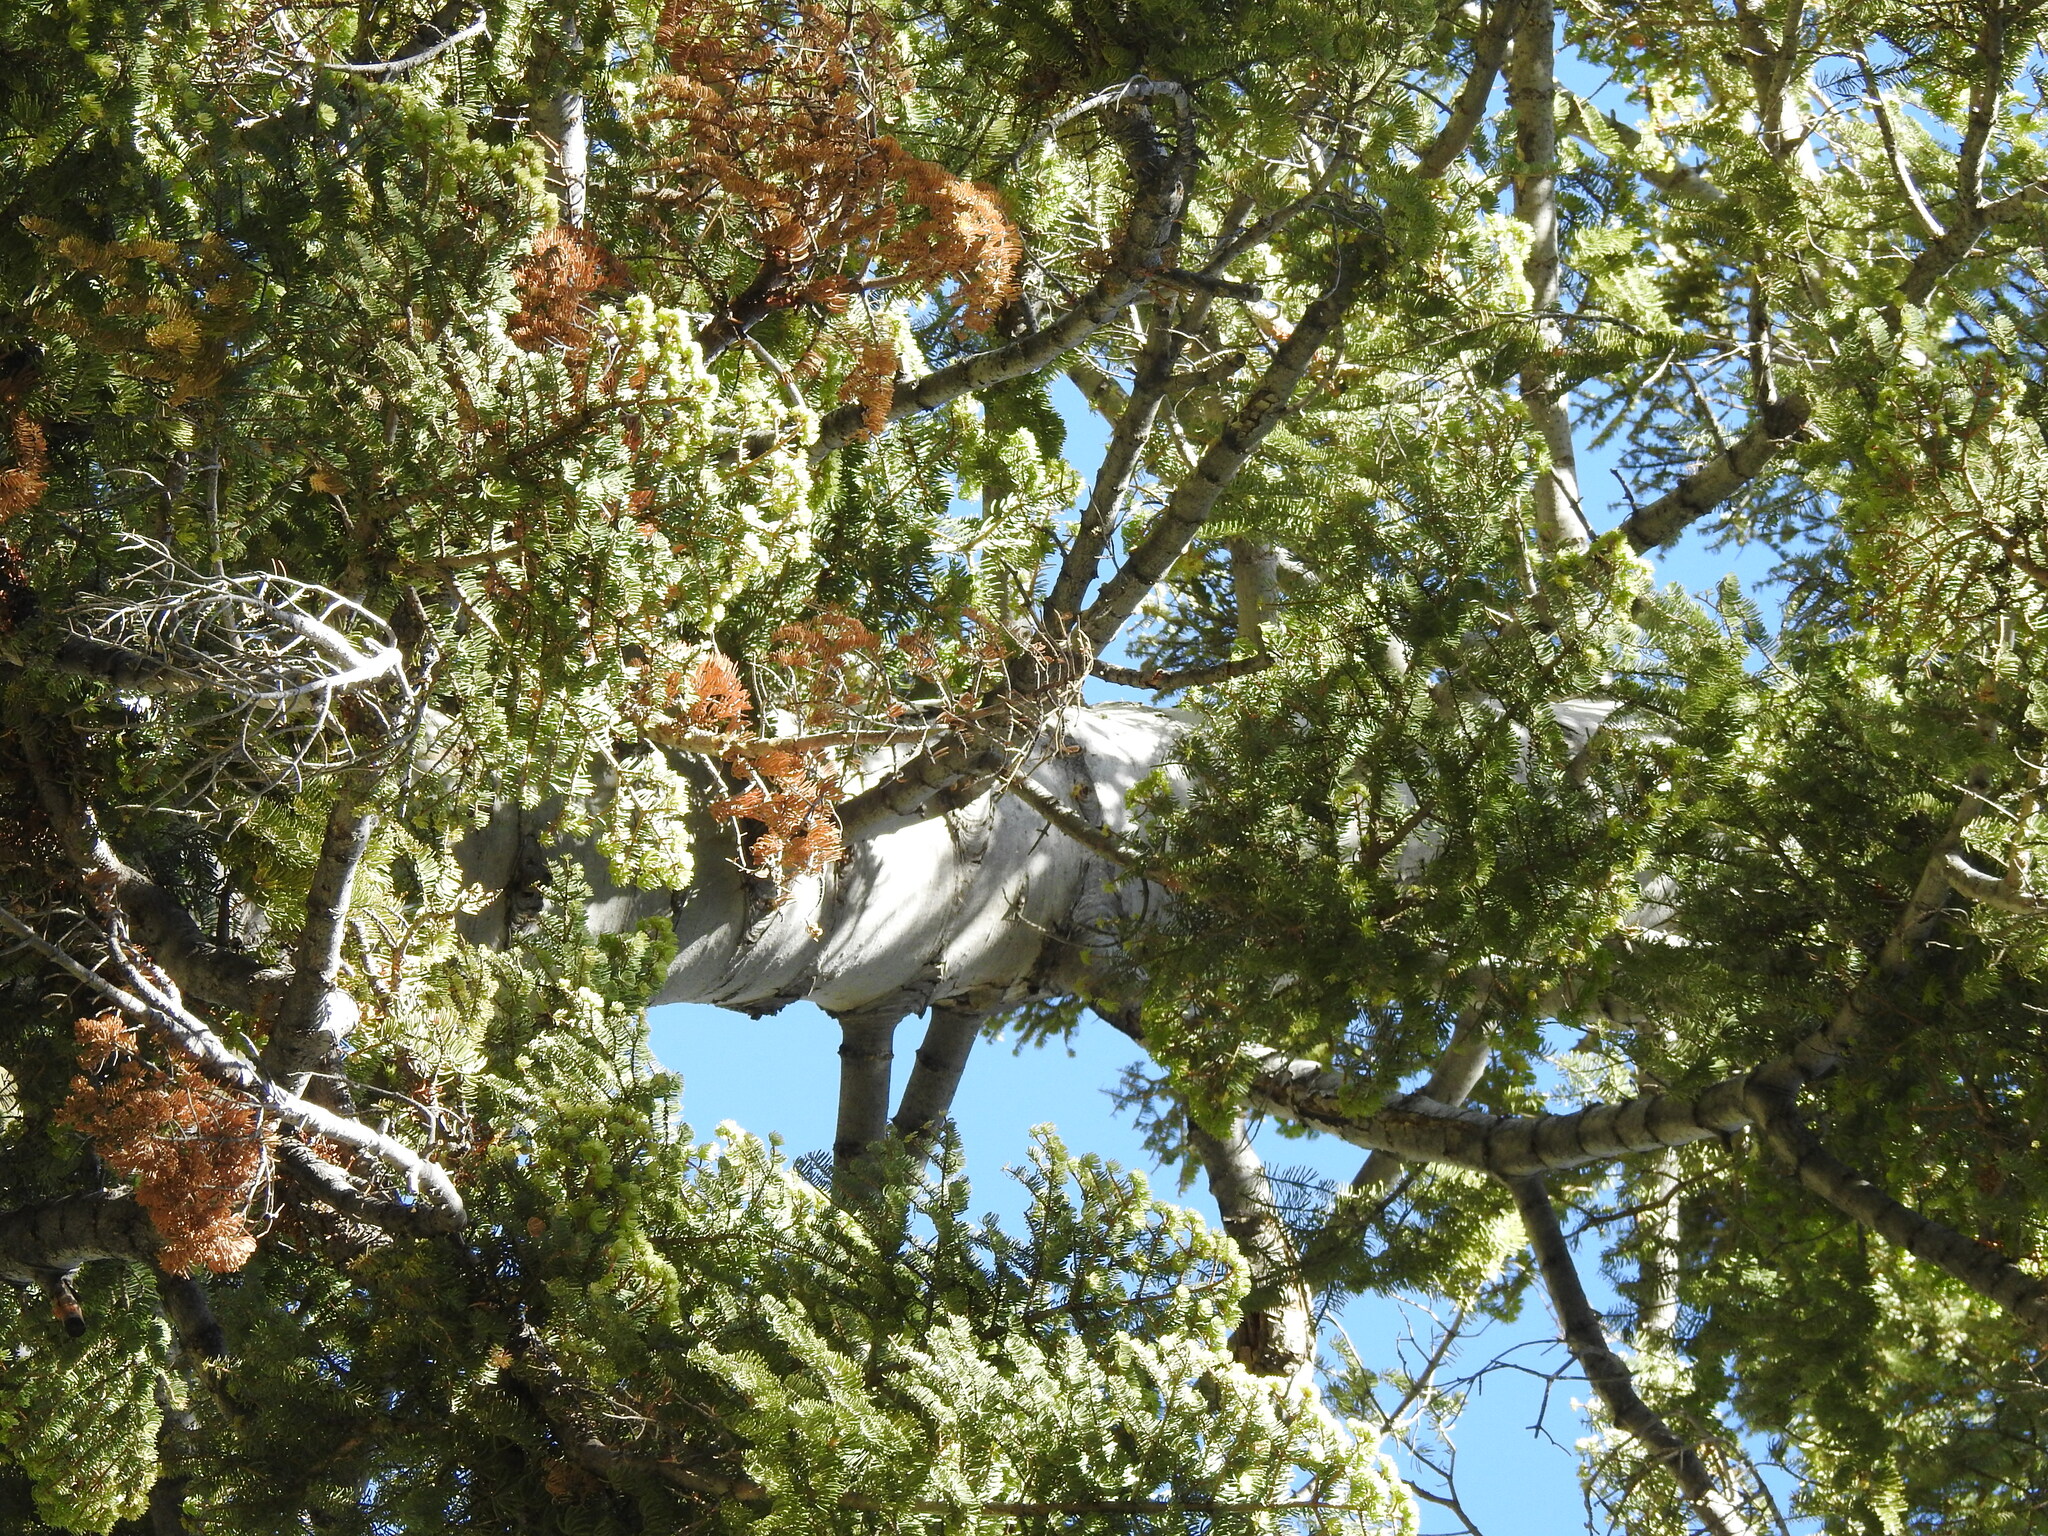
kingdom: Plantae
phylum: Tracheophyta
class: Pinopsida
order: Pinales
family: Pinaceae
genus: Abies
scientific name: Abies concolor
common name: Colorado fir
